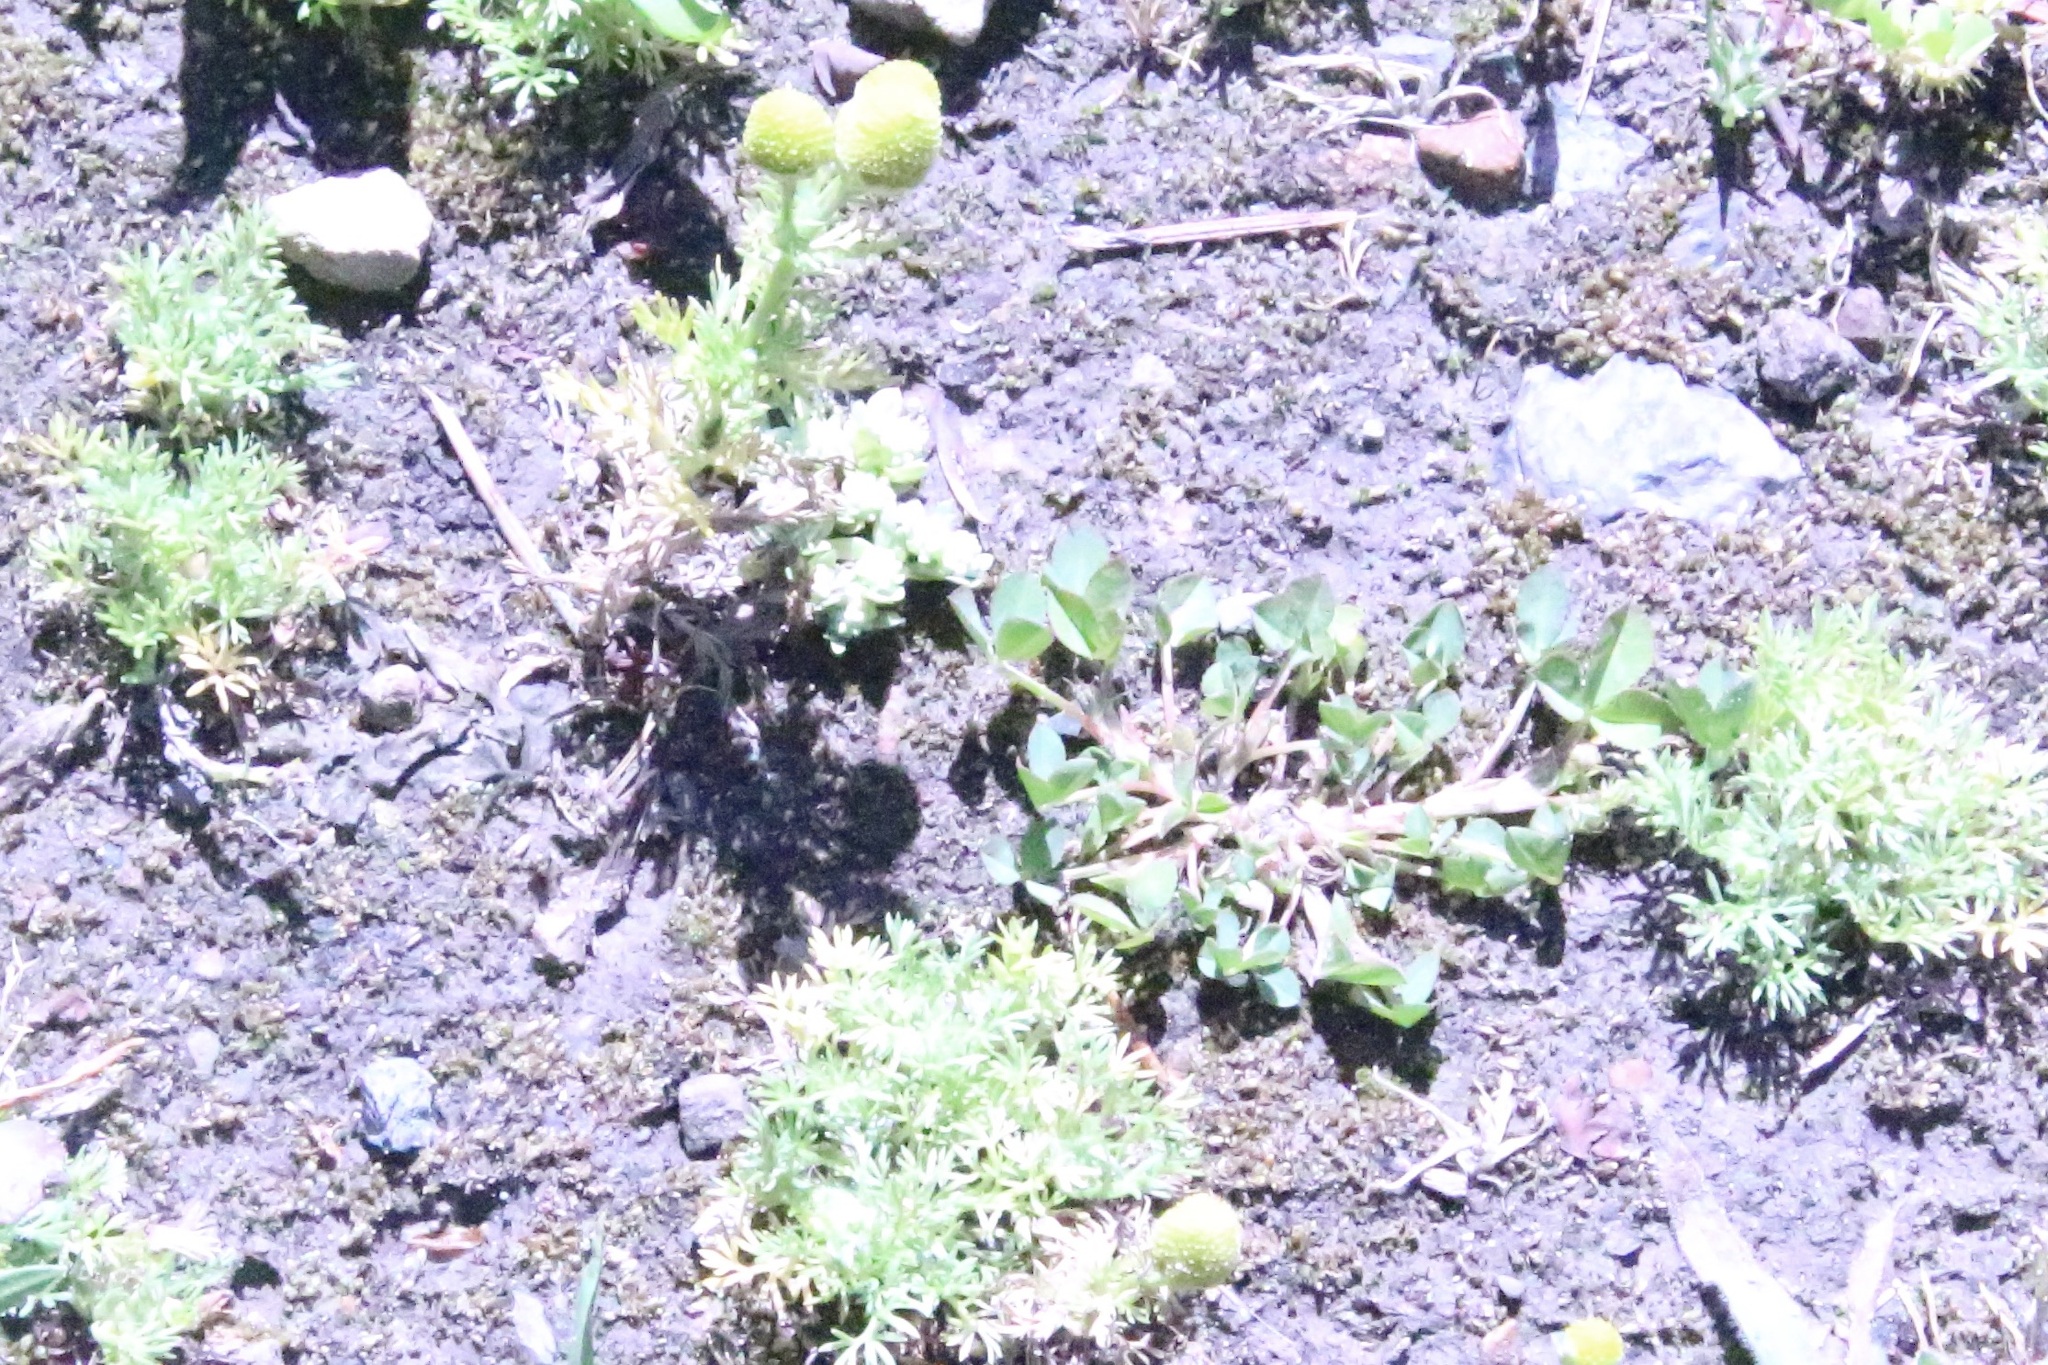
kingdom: Plantae
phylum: Tracheophyta
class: Magnoliopsida
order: Asterales
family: Asteraceae
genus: Matricaria
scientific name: Matricaria discoidea
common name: Disc mayweed
